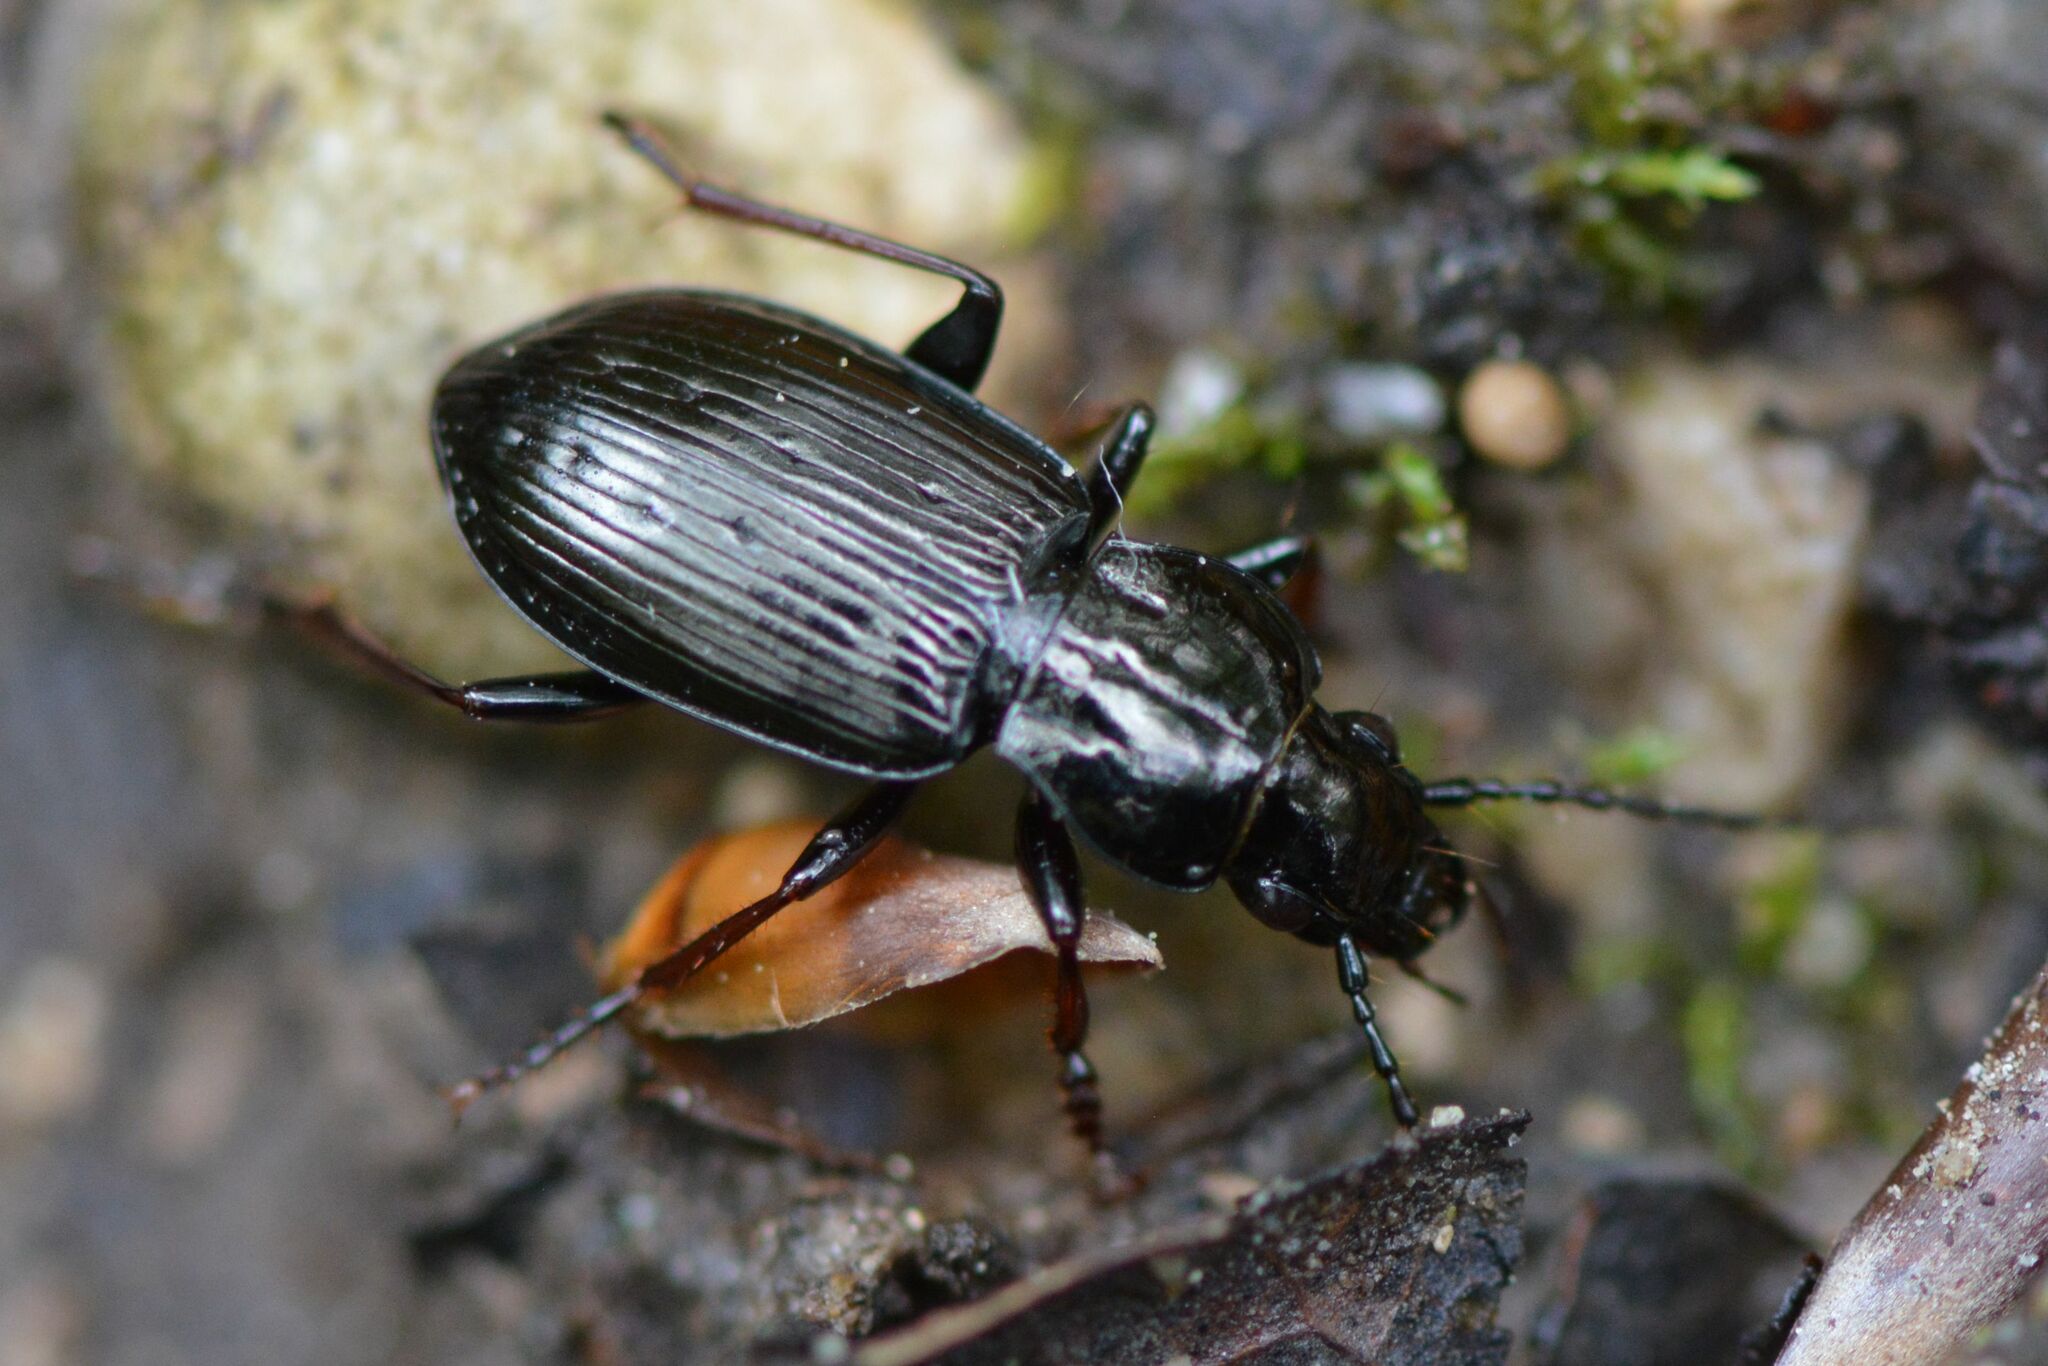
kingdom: Animalia
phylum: Arthropoda
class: Insecta
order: Coleoptera
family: Carabidae
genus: Pterostichus
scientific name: Pterostichus oblongopunctatus
